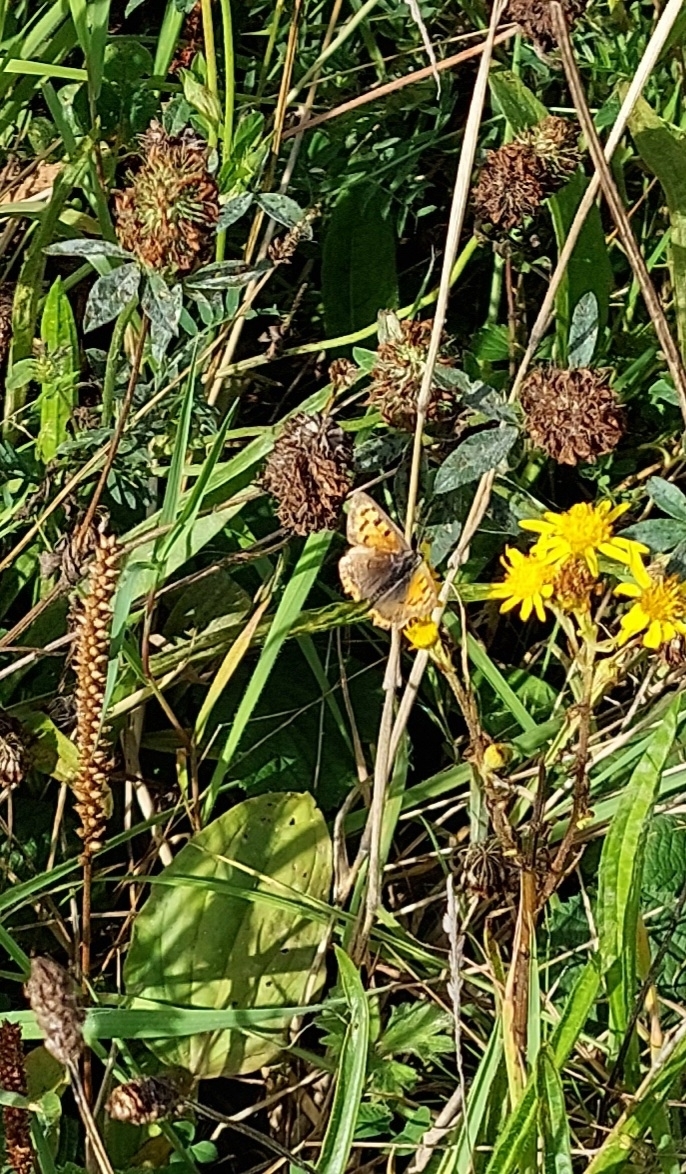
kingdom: Animalia
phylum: Arthropoda
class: Insecta
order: Lepidoptera
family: Lycaenidae
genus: Lycaena
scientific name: Lycaena phlaeas
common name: Small copper
